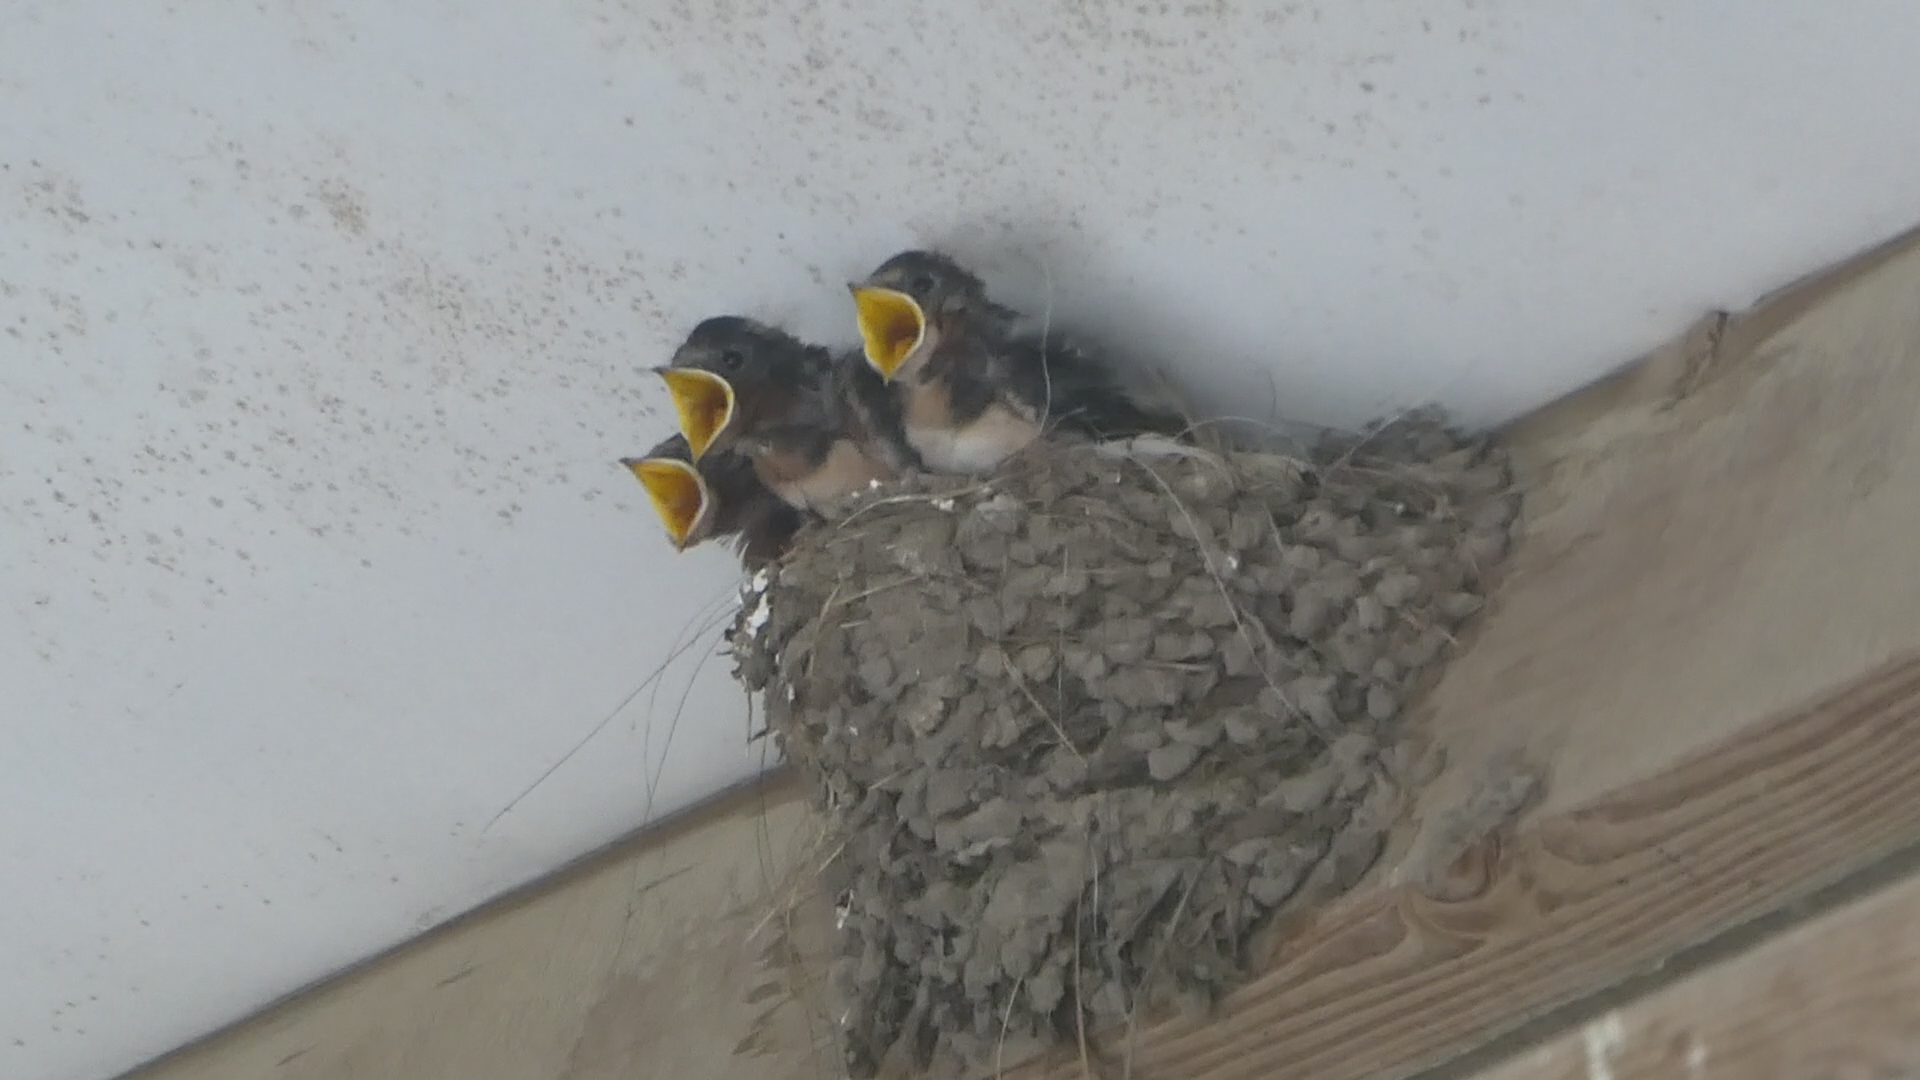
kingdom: Animalia
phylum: Chordata
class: Aves
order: Passeriformes
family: Hirundinidae
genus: Hirundo
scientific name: Hirundo rustica
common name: Barn swallow
